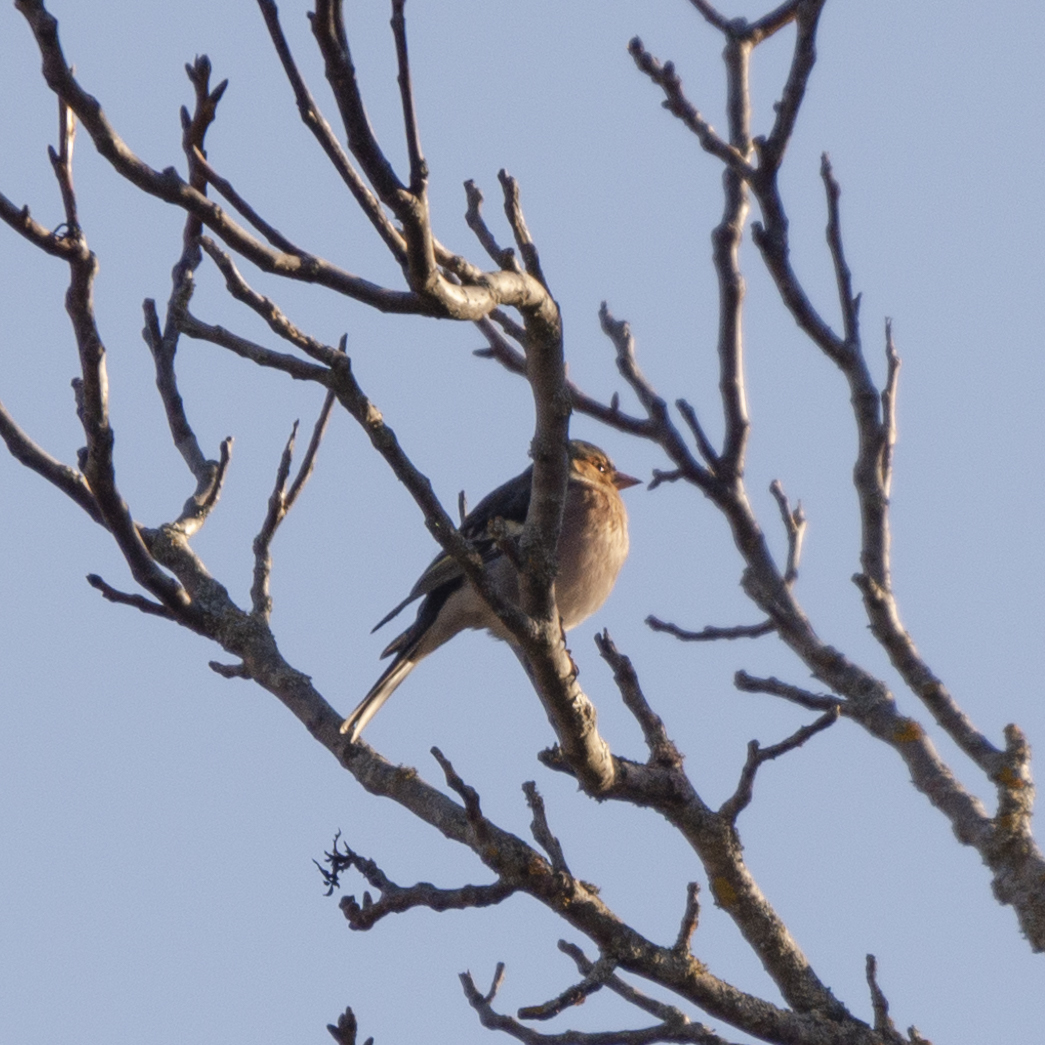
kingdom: Animalia
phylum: Chordata
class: Aves
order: Passeriformes
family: Fringillidae
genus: Fringilla
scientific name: Fringilla coelebs
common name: Common chaffinch
